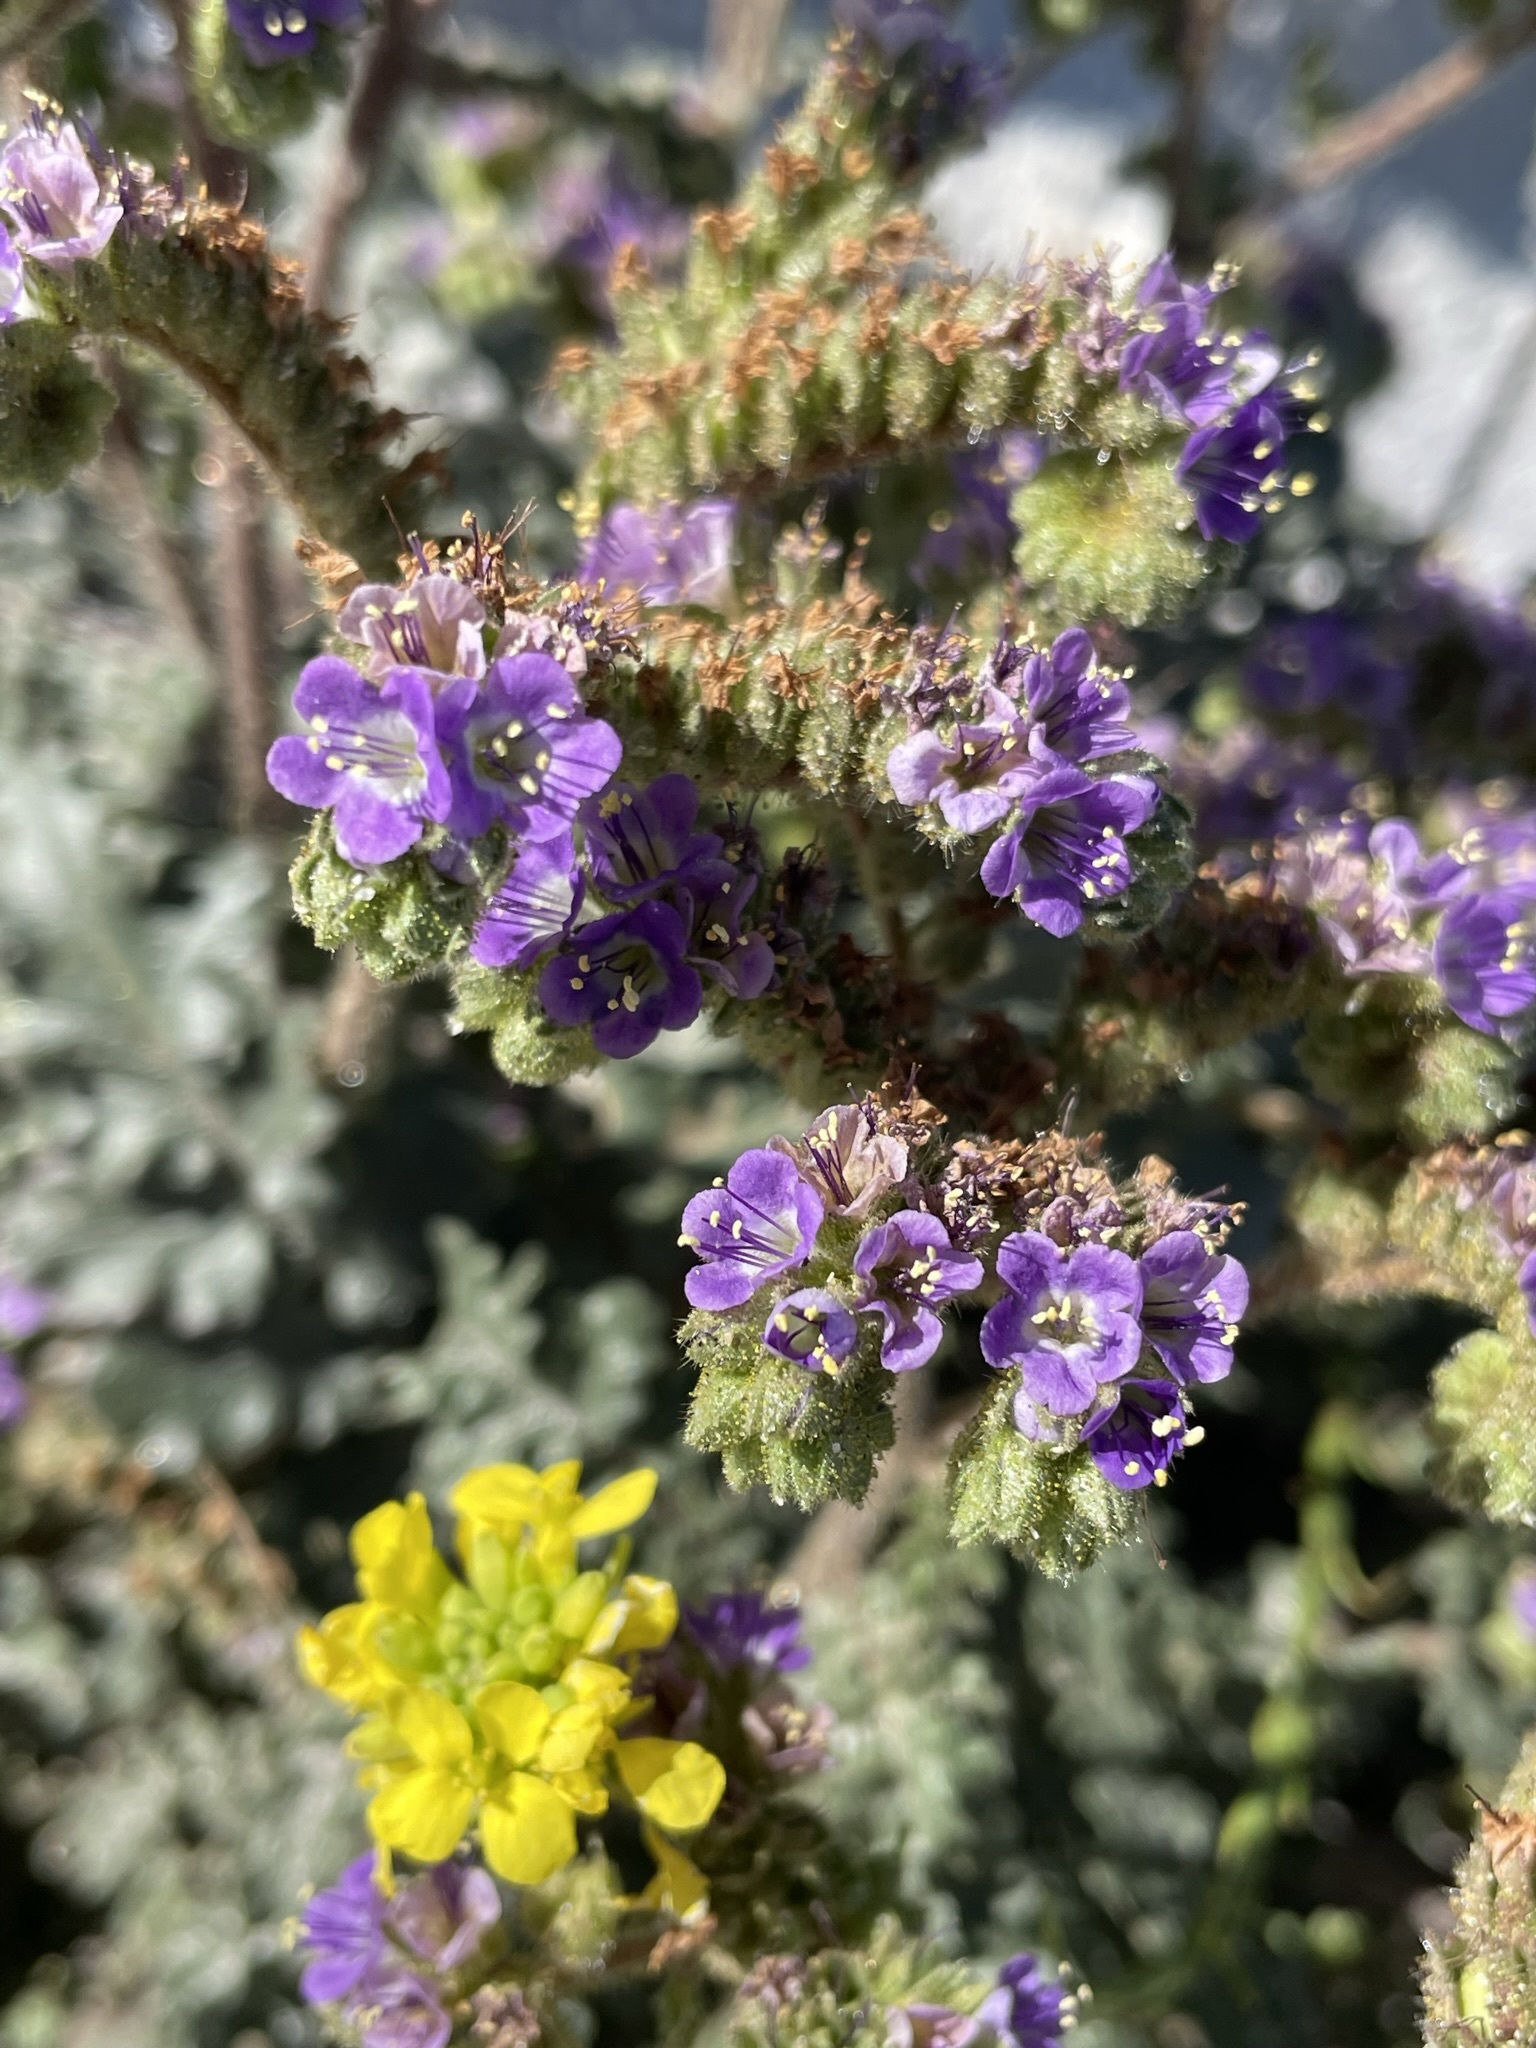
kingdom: Plantae
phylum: Tracheophyta
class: Magnoliopsida
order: Boraginales
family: Hydrophyllaceae
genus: Phacelia
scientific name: Phacelia minutiflora
